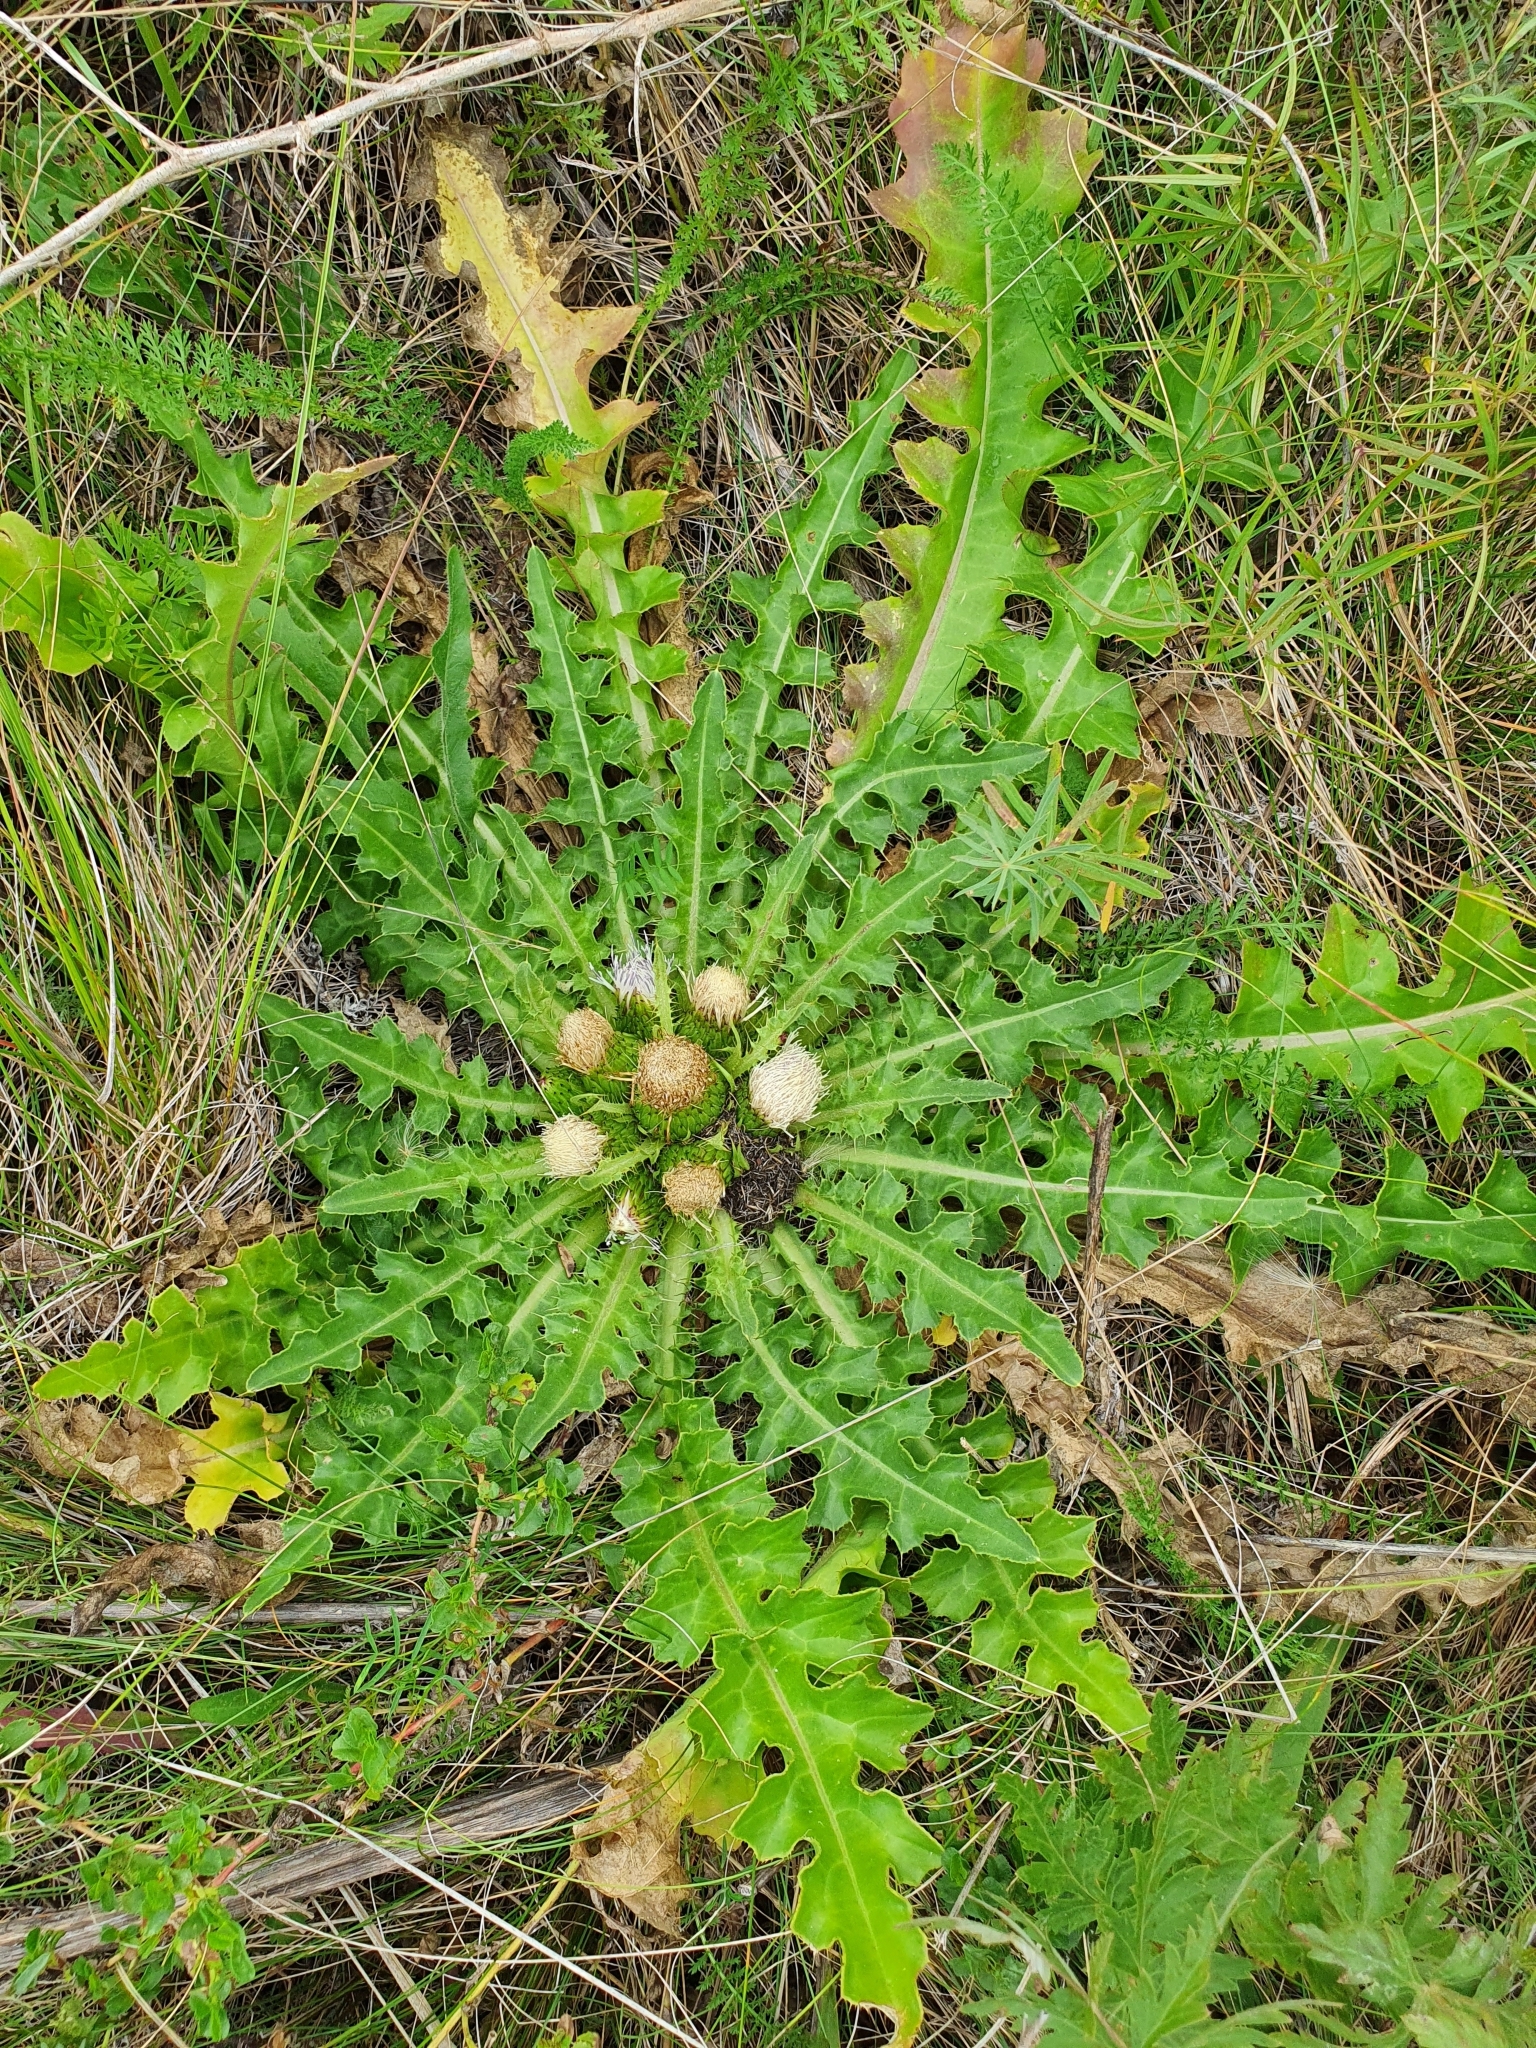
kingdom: Plantae
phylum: Tracheophyta
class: Magnoliopsida
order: Asterales
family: Asteraceae
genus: Cirsium
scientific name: Cirsium esculentum
